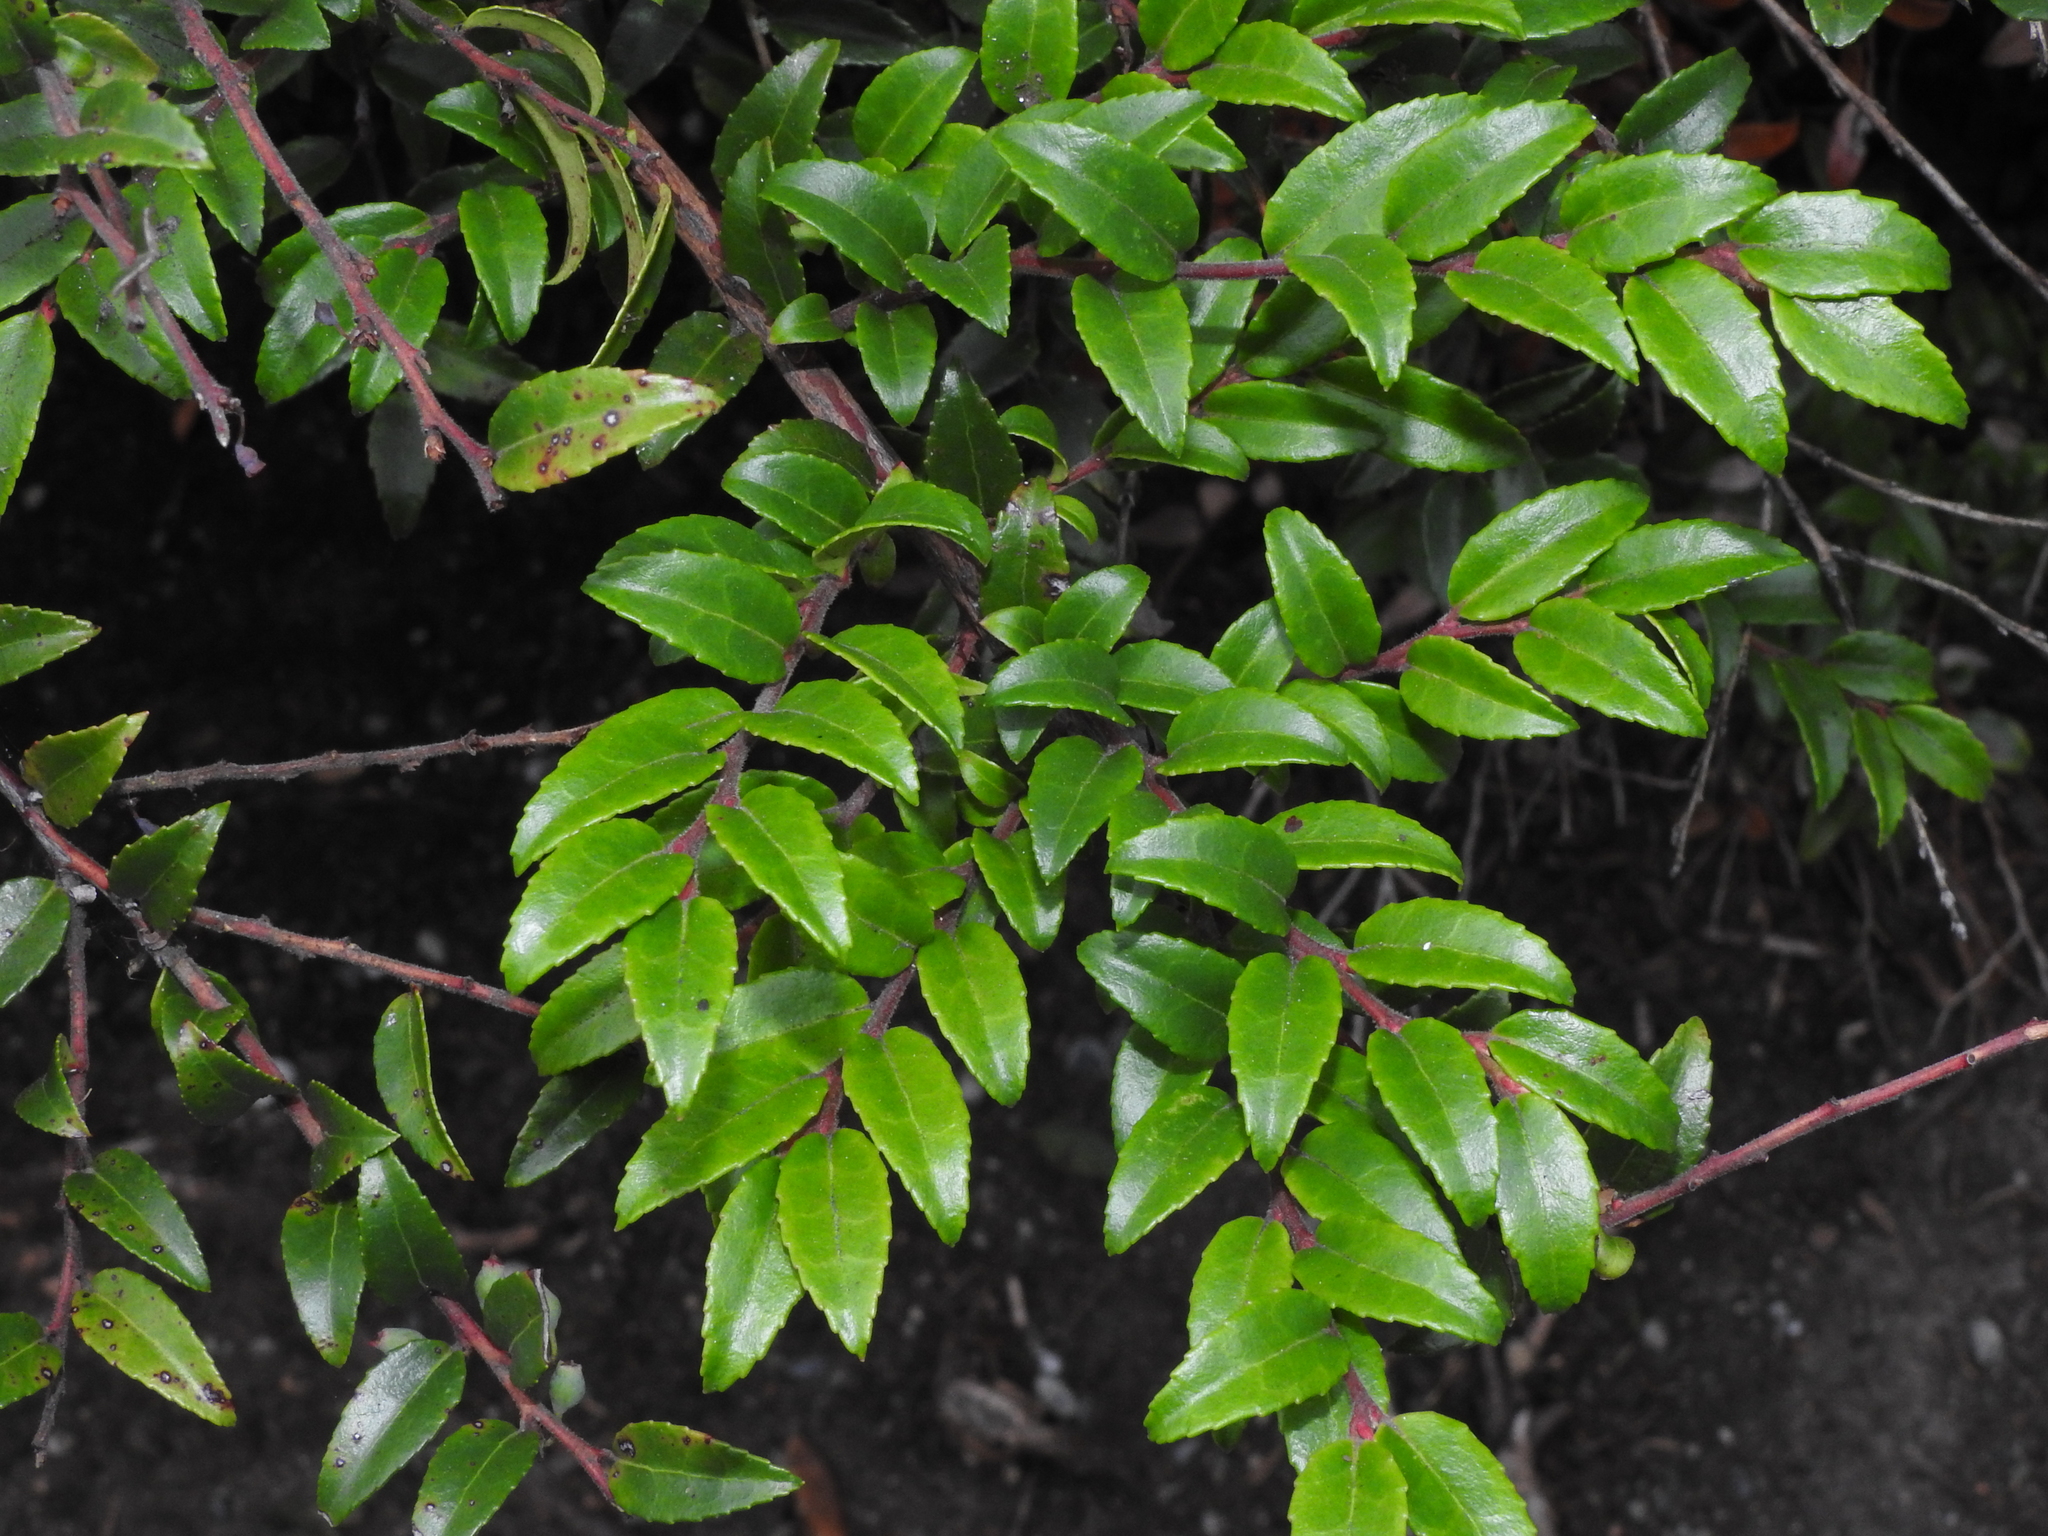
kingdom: Plantae
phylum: Tracheophyta
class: Magnoliopsida
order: Ericales
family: Ericaceae
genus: Vaccinium
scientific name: Vaccinium ovatum
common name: California-huckleberry
